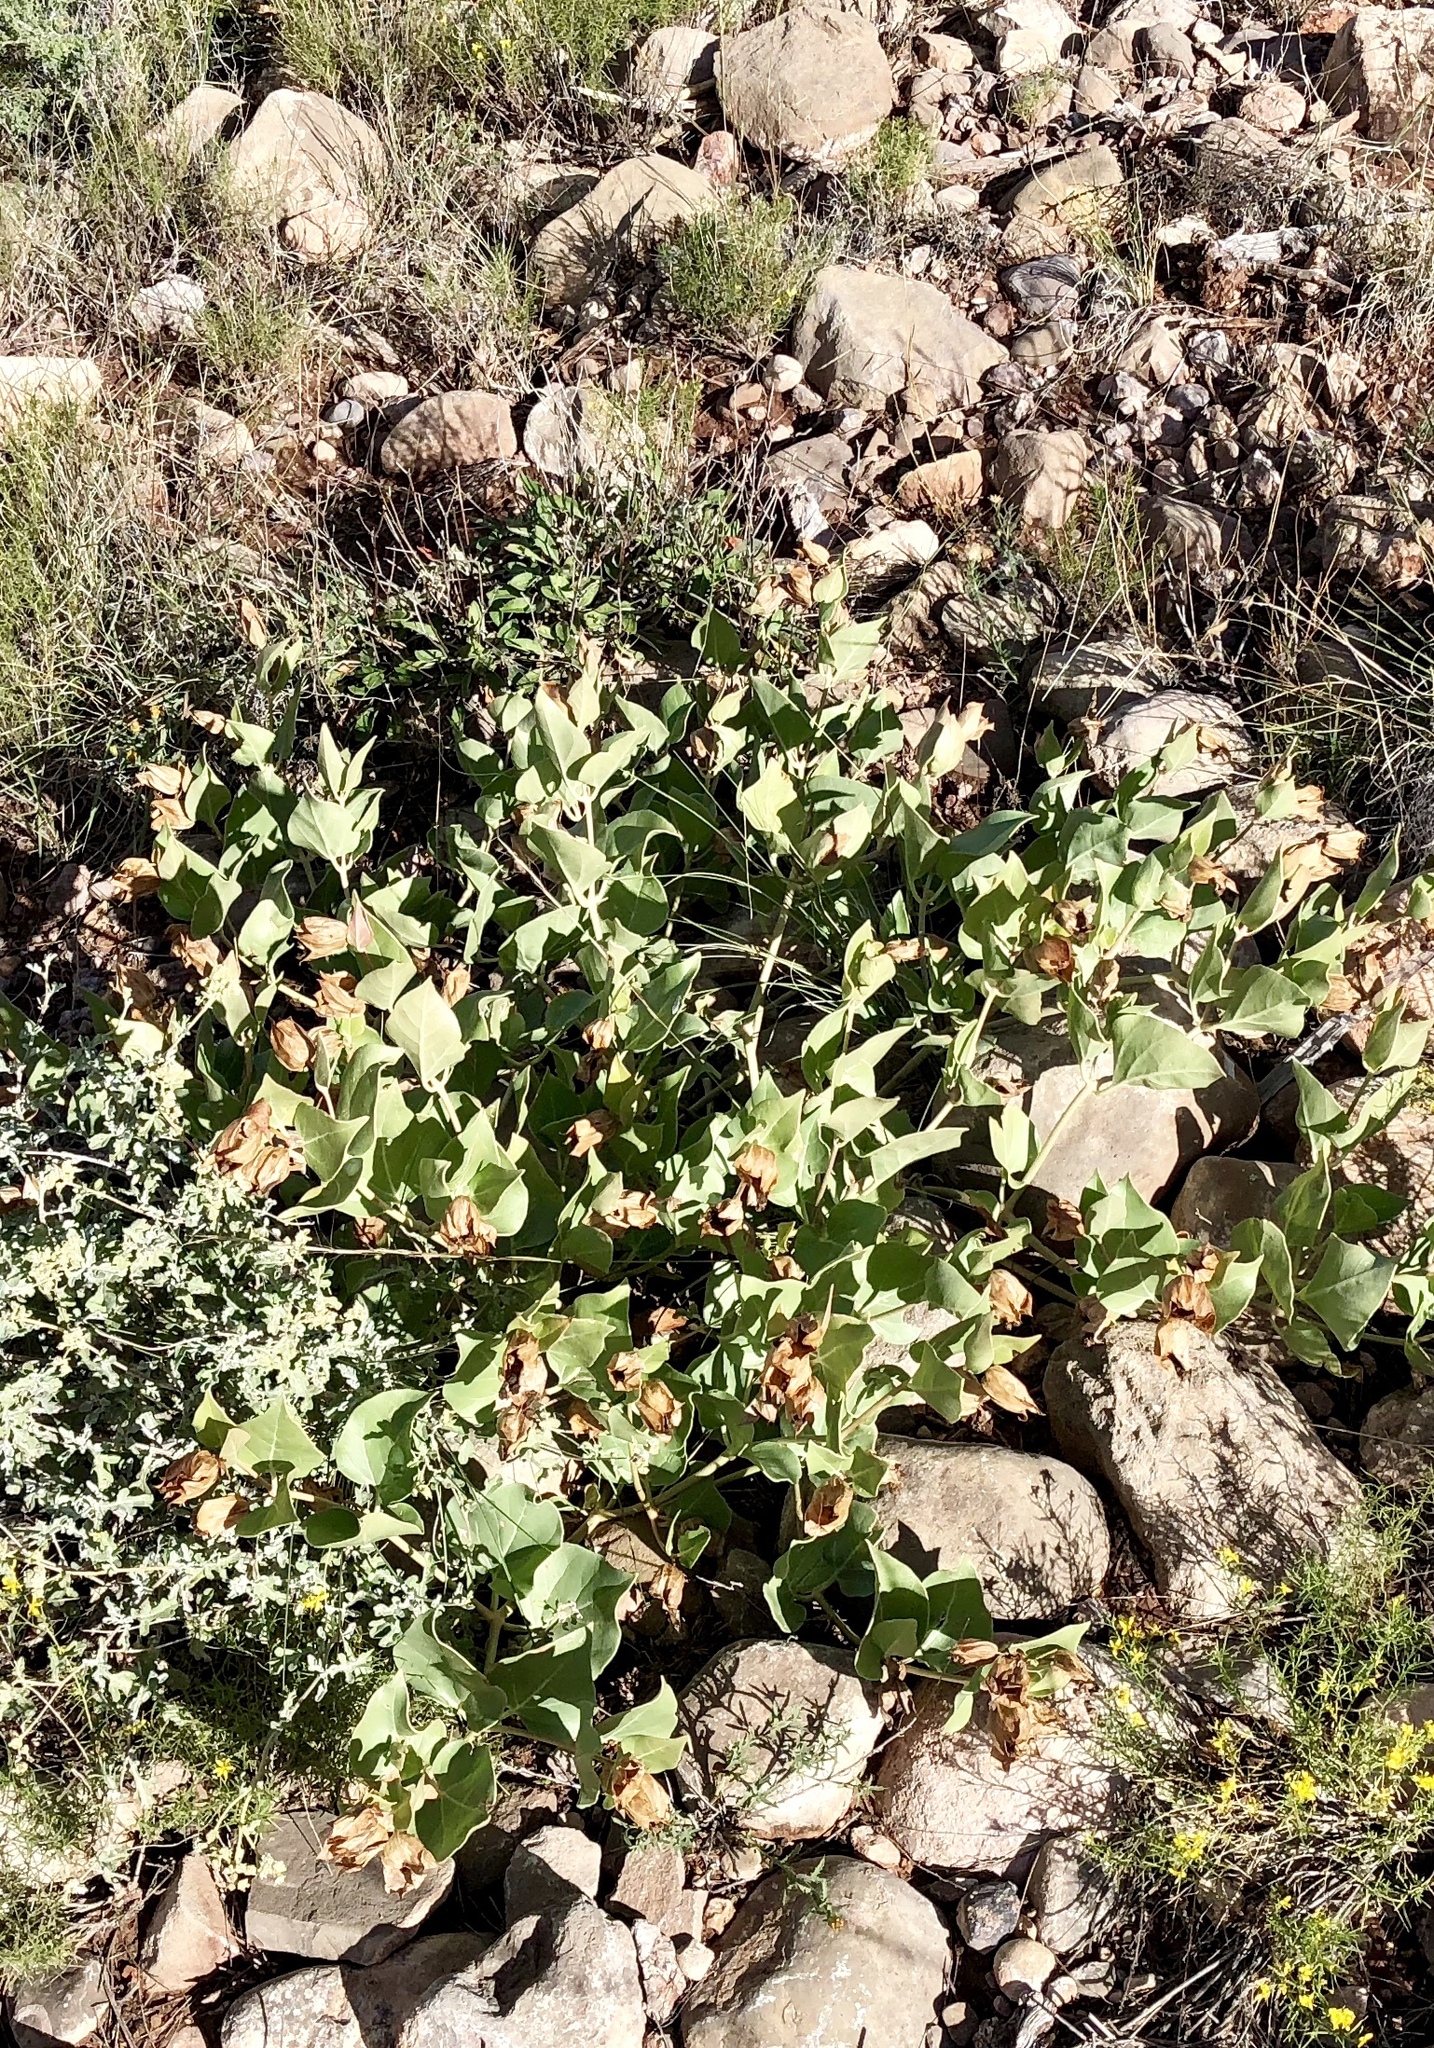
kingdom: Plantae
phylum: Tracheophyta
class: Magnoliopsida
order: Caryophyllales
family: Nyctaginaceae
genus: Mirabilis
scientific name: Mirabilis multiflora
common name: Froebel's four-o'clock
